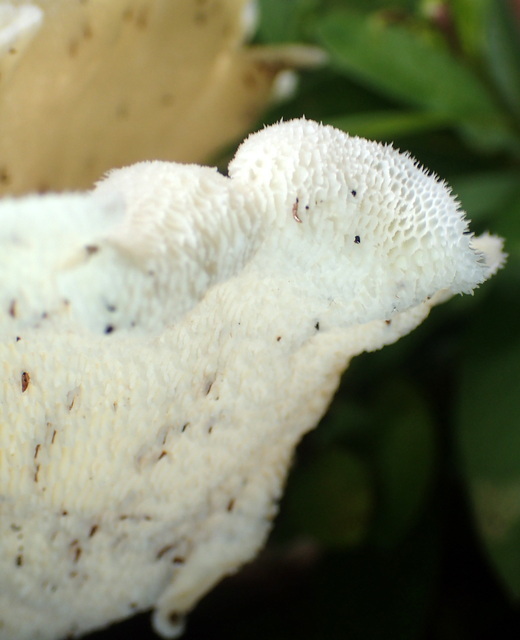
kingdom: Fungi
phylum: Basidiomycota
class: Agaricomycetes
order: Polyporales
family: Polyporaceae
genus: Favolus
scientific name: Favolus tenuiculus
